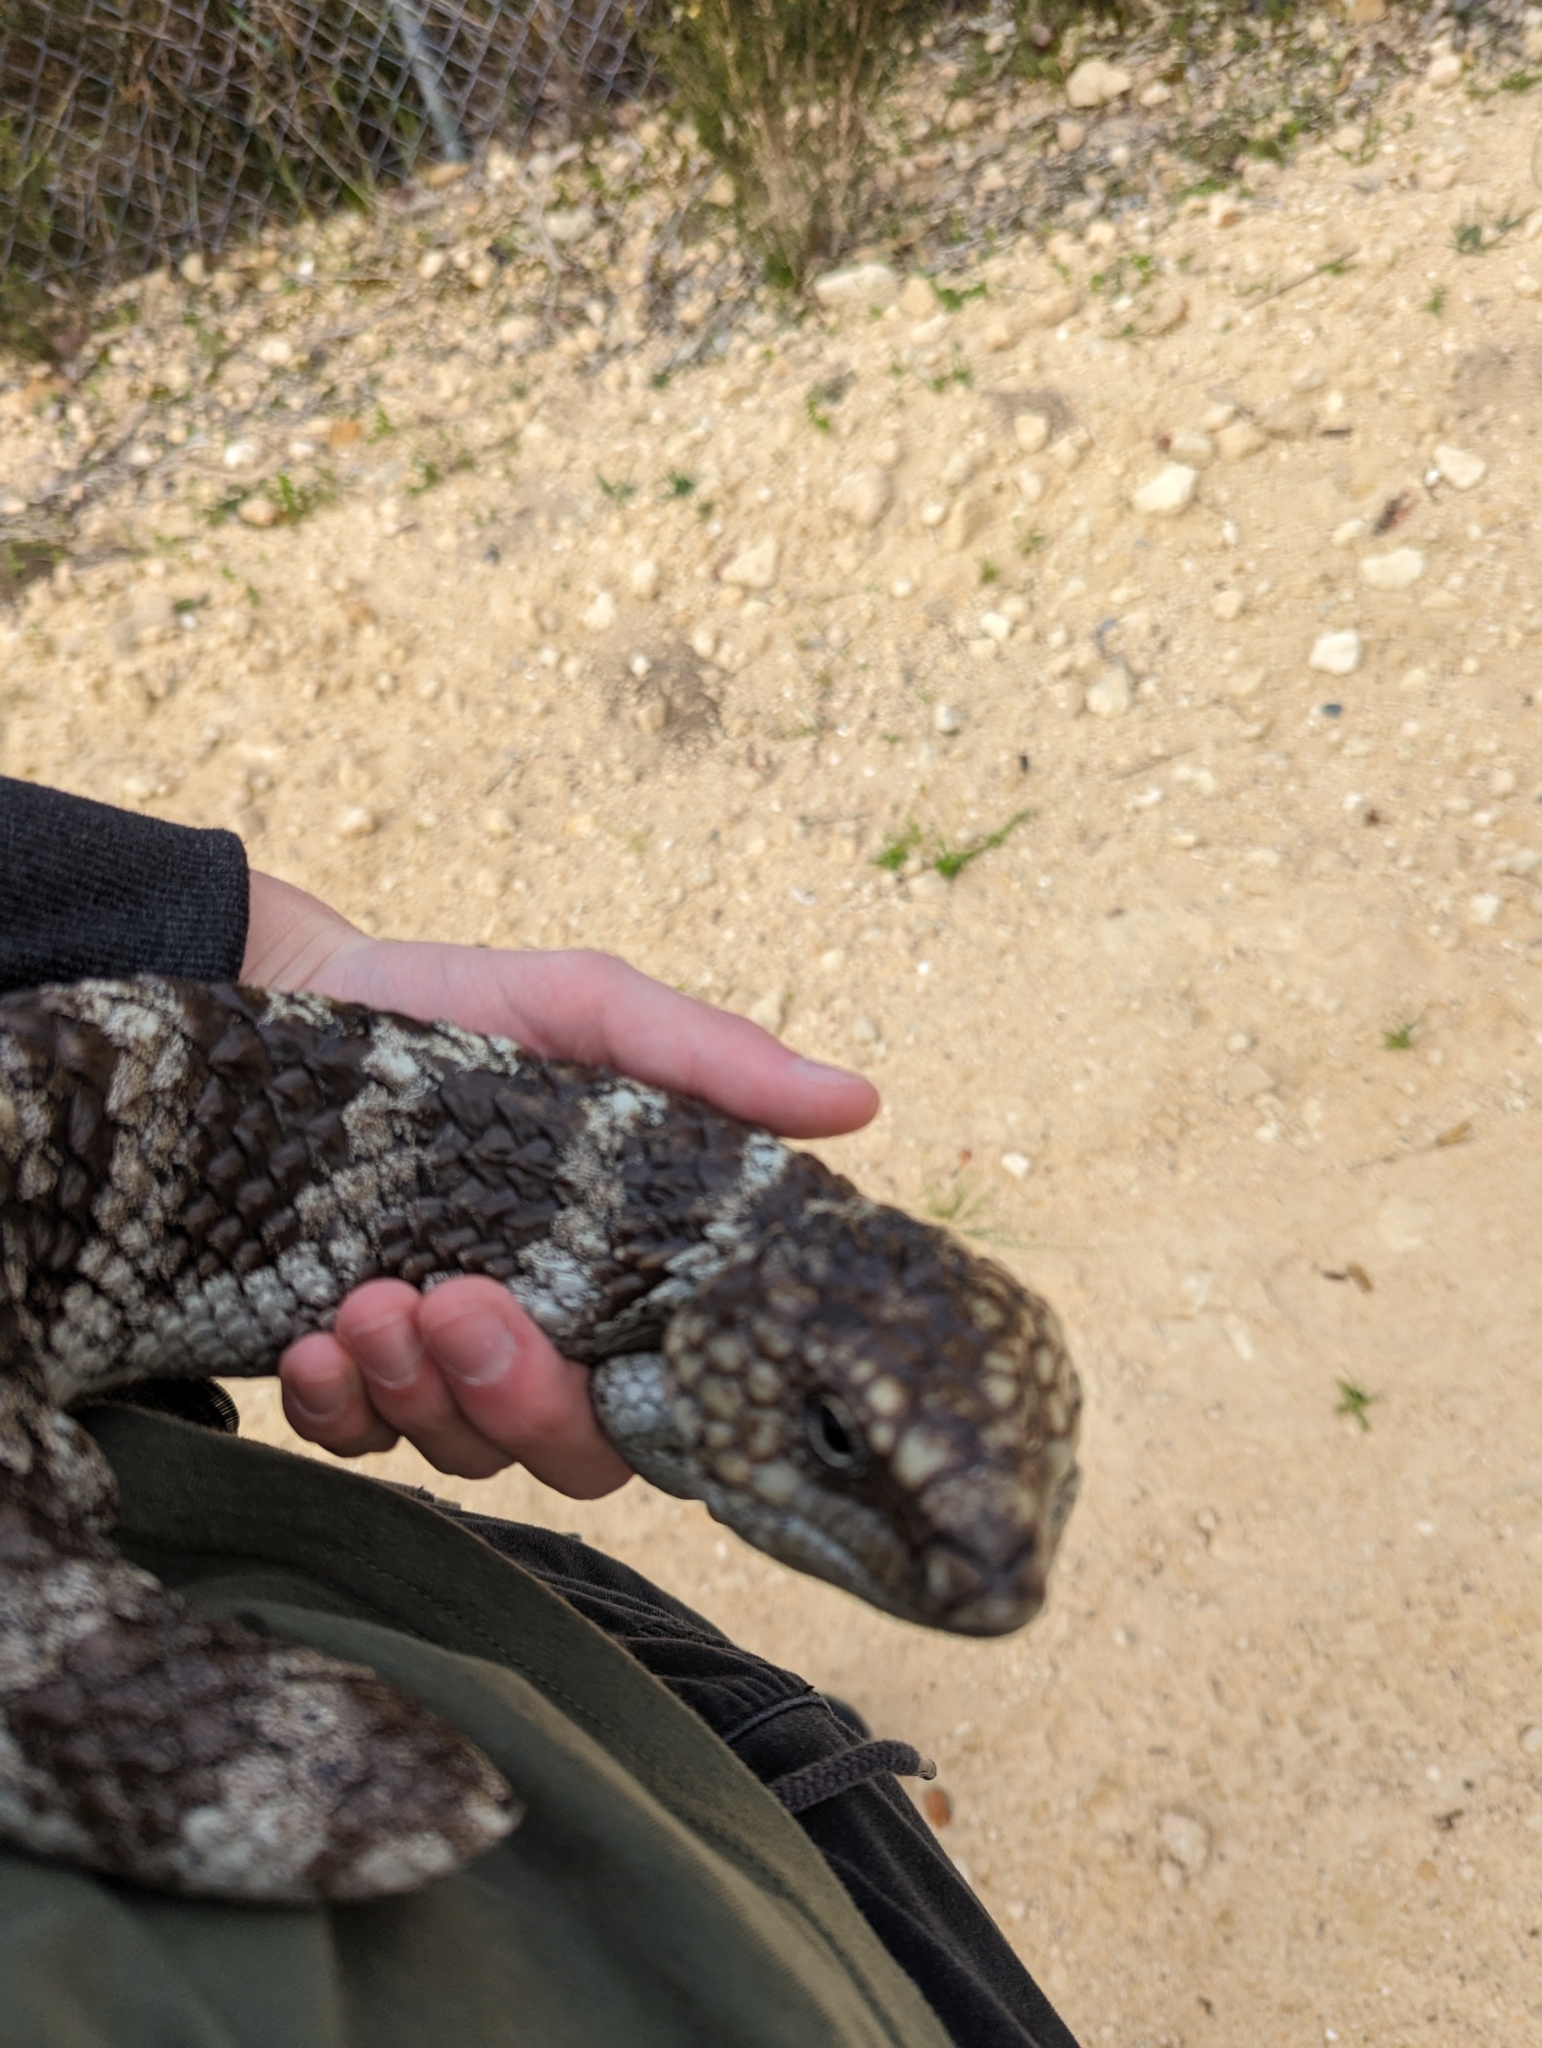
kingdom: Animalia
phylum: Chordata
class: Squamata
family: Scincidae
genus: Tiliqua
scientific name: Tiliqua rugosa
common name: Pinecone lizard
